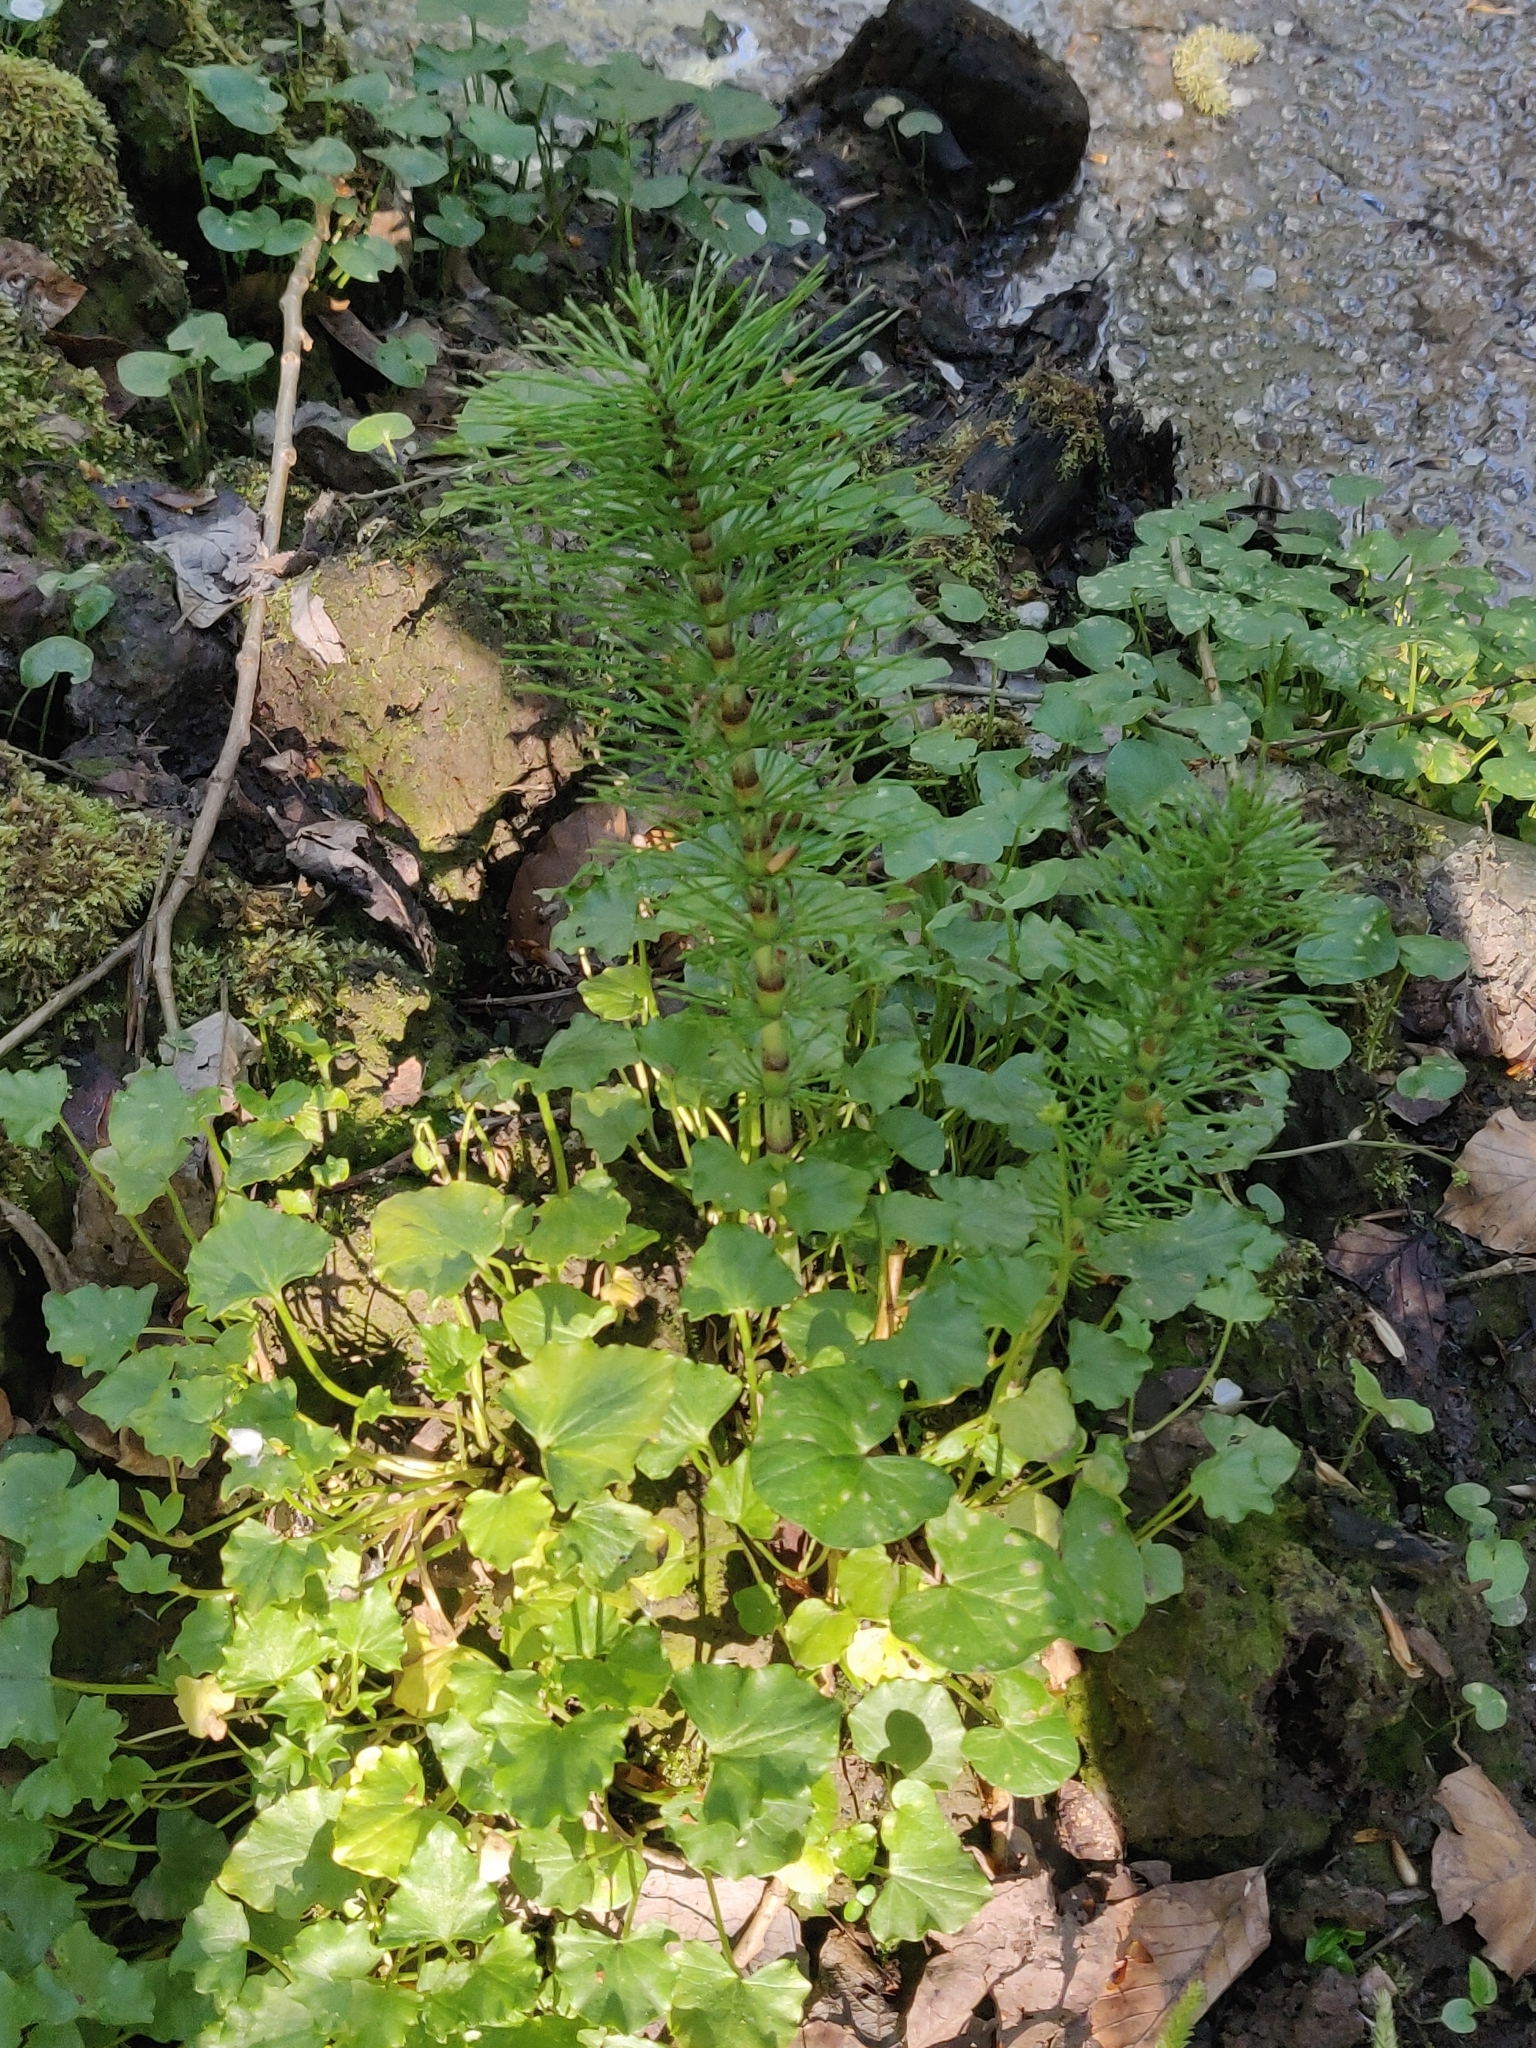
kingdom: Plantae
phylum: Tracheophyta
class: Polypodiopsida
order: Equisetales
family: Equisetaceae
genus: Equisetum
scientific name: Equisetum telmateia
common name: Great horsetail
